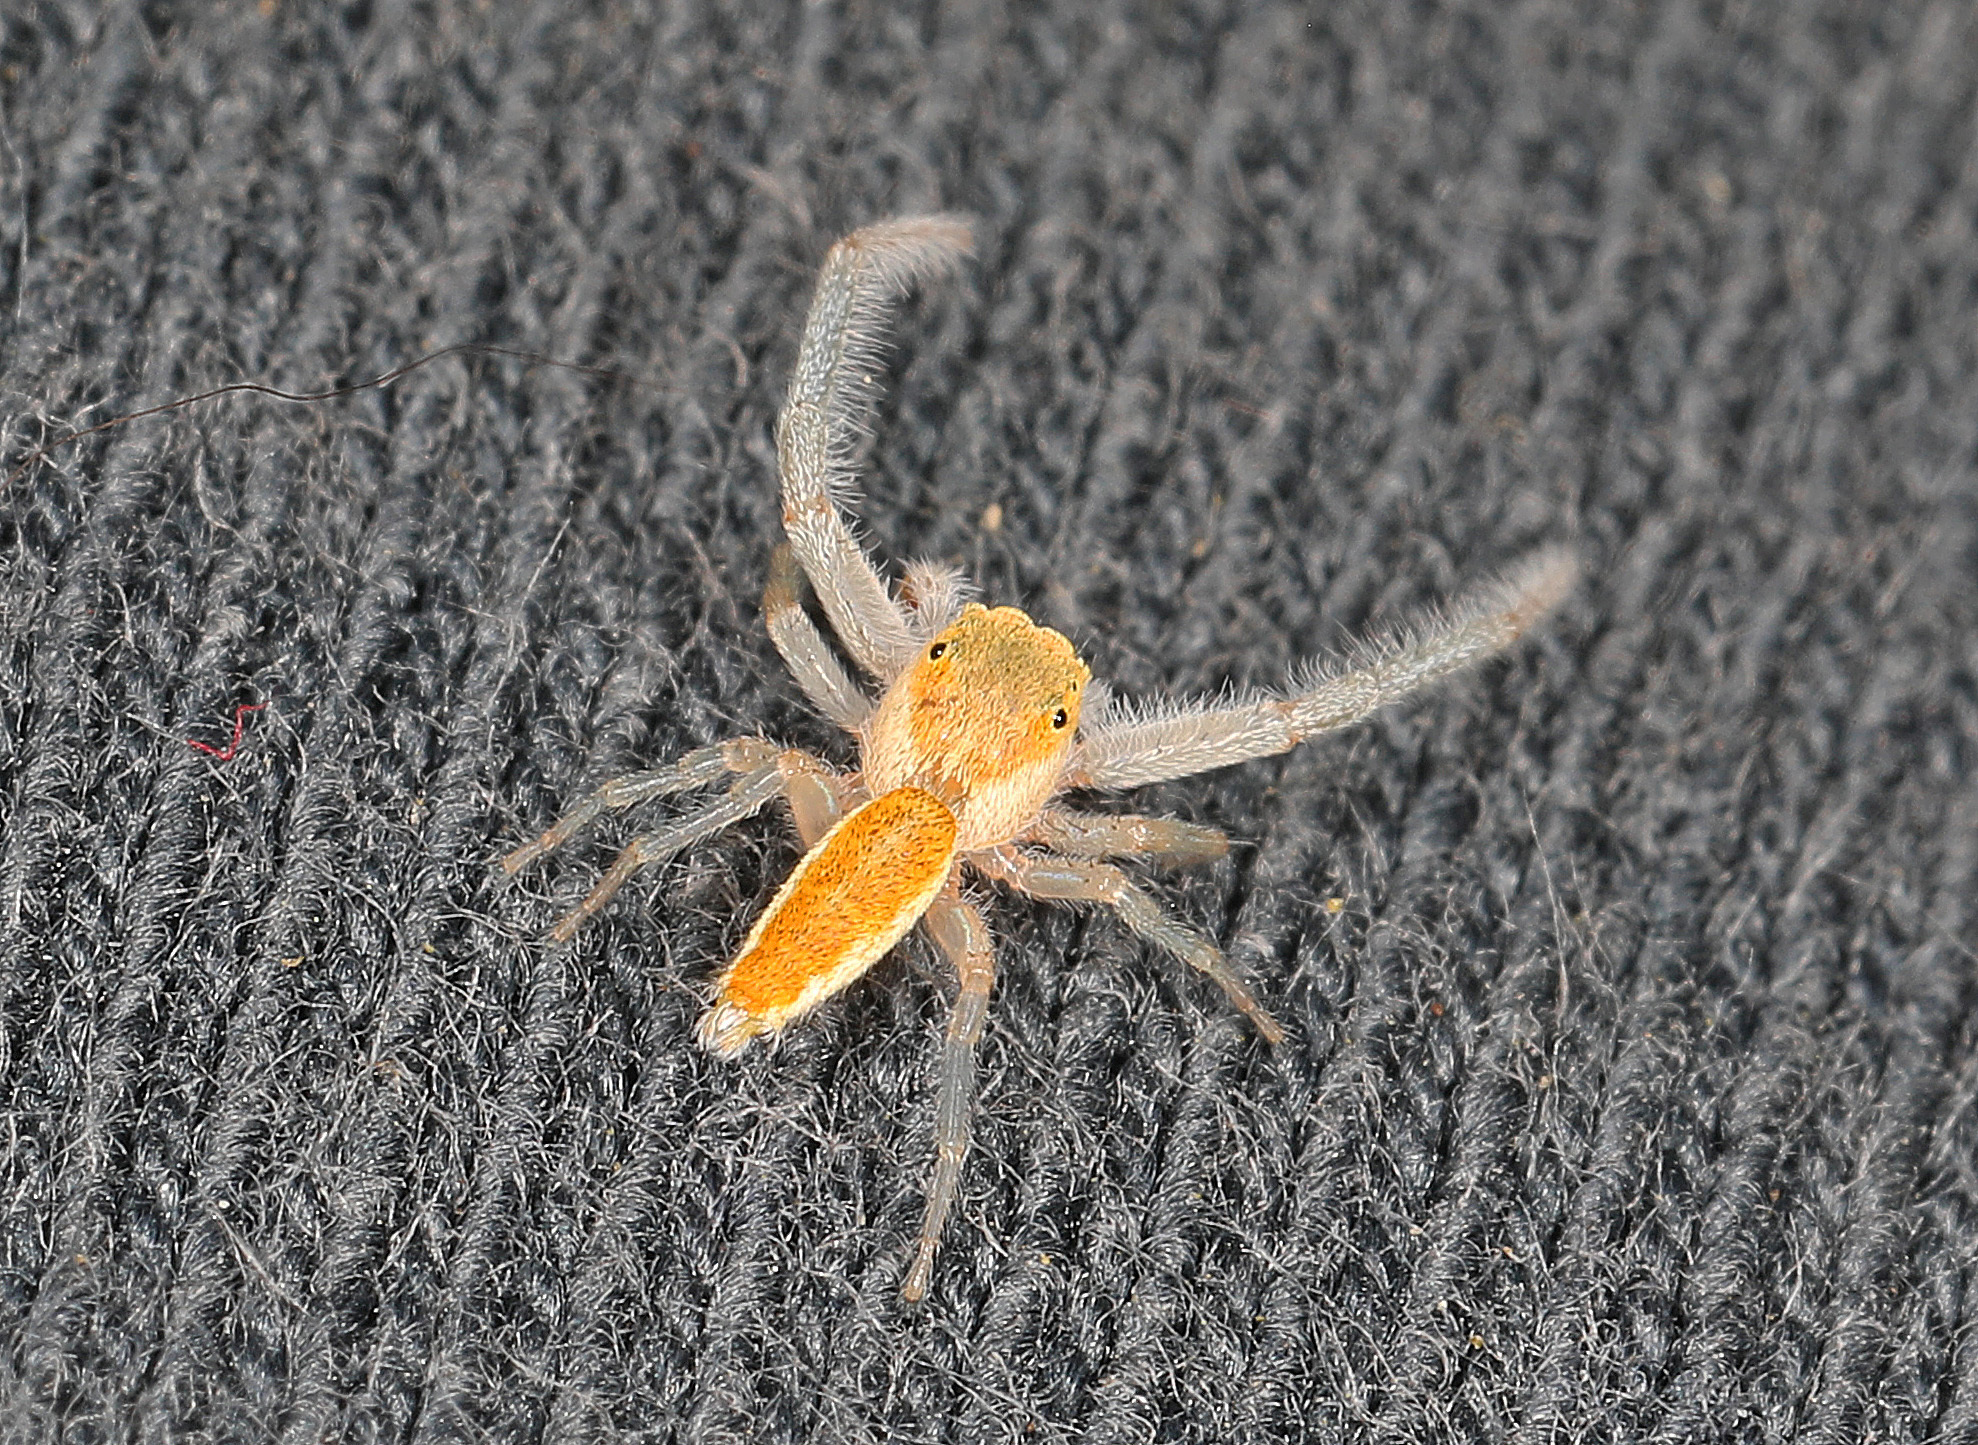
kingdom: Animalia
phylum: Arthropoda
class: Arachnida
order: Araneae
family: Salticidae
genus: Hentzia
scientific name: Hentzia mitrata
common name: White-jawed jumping spider
